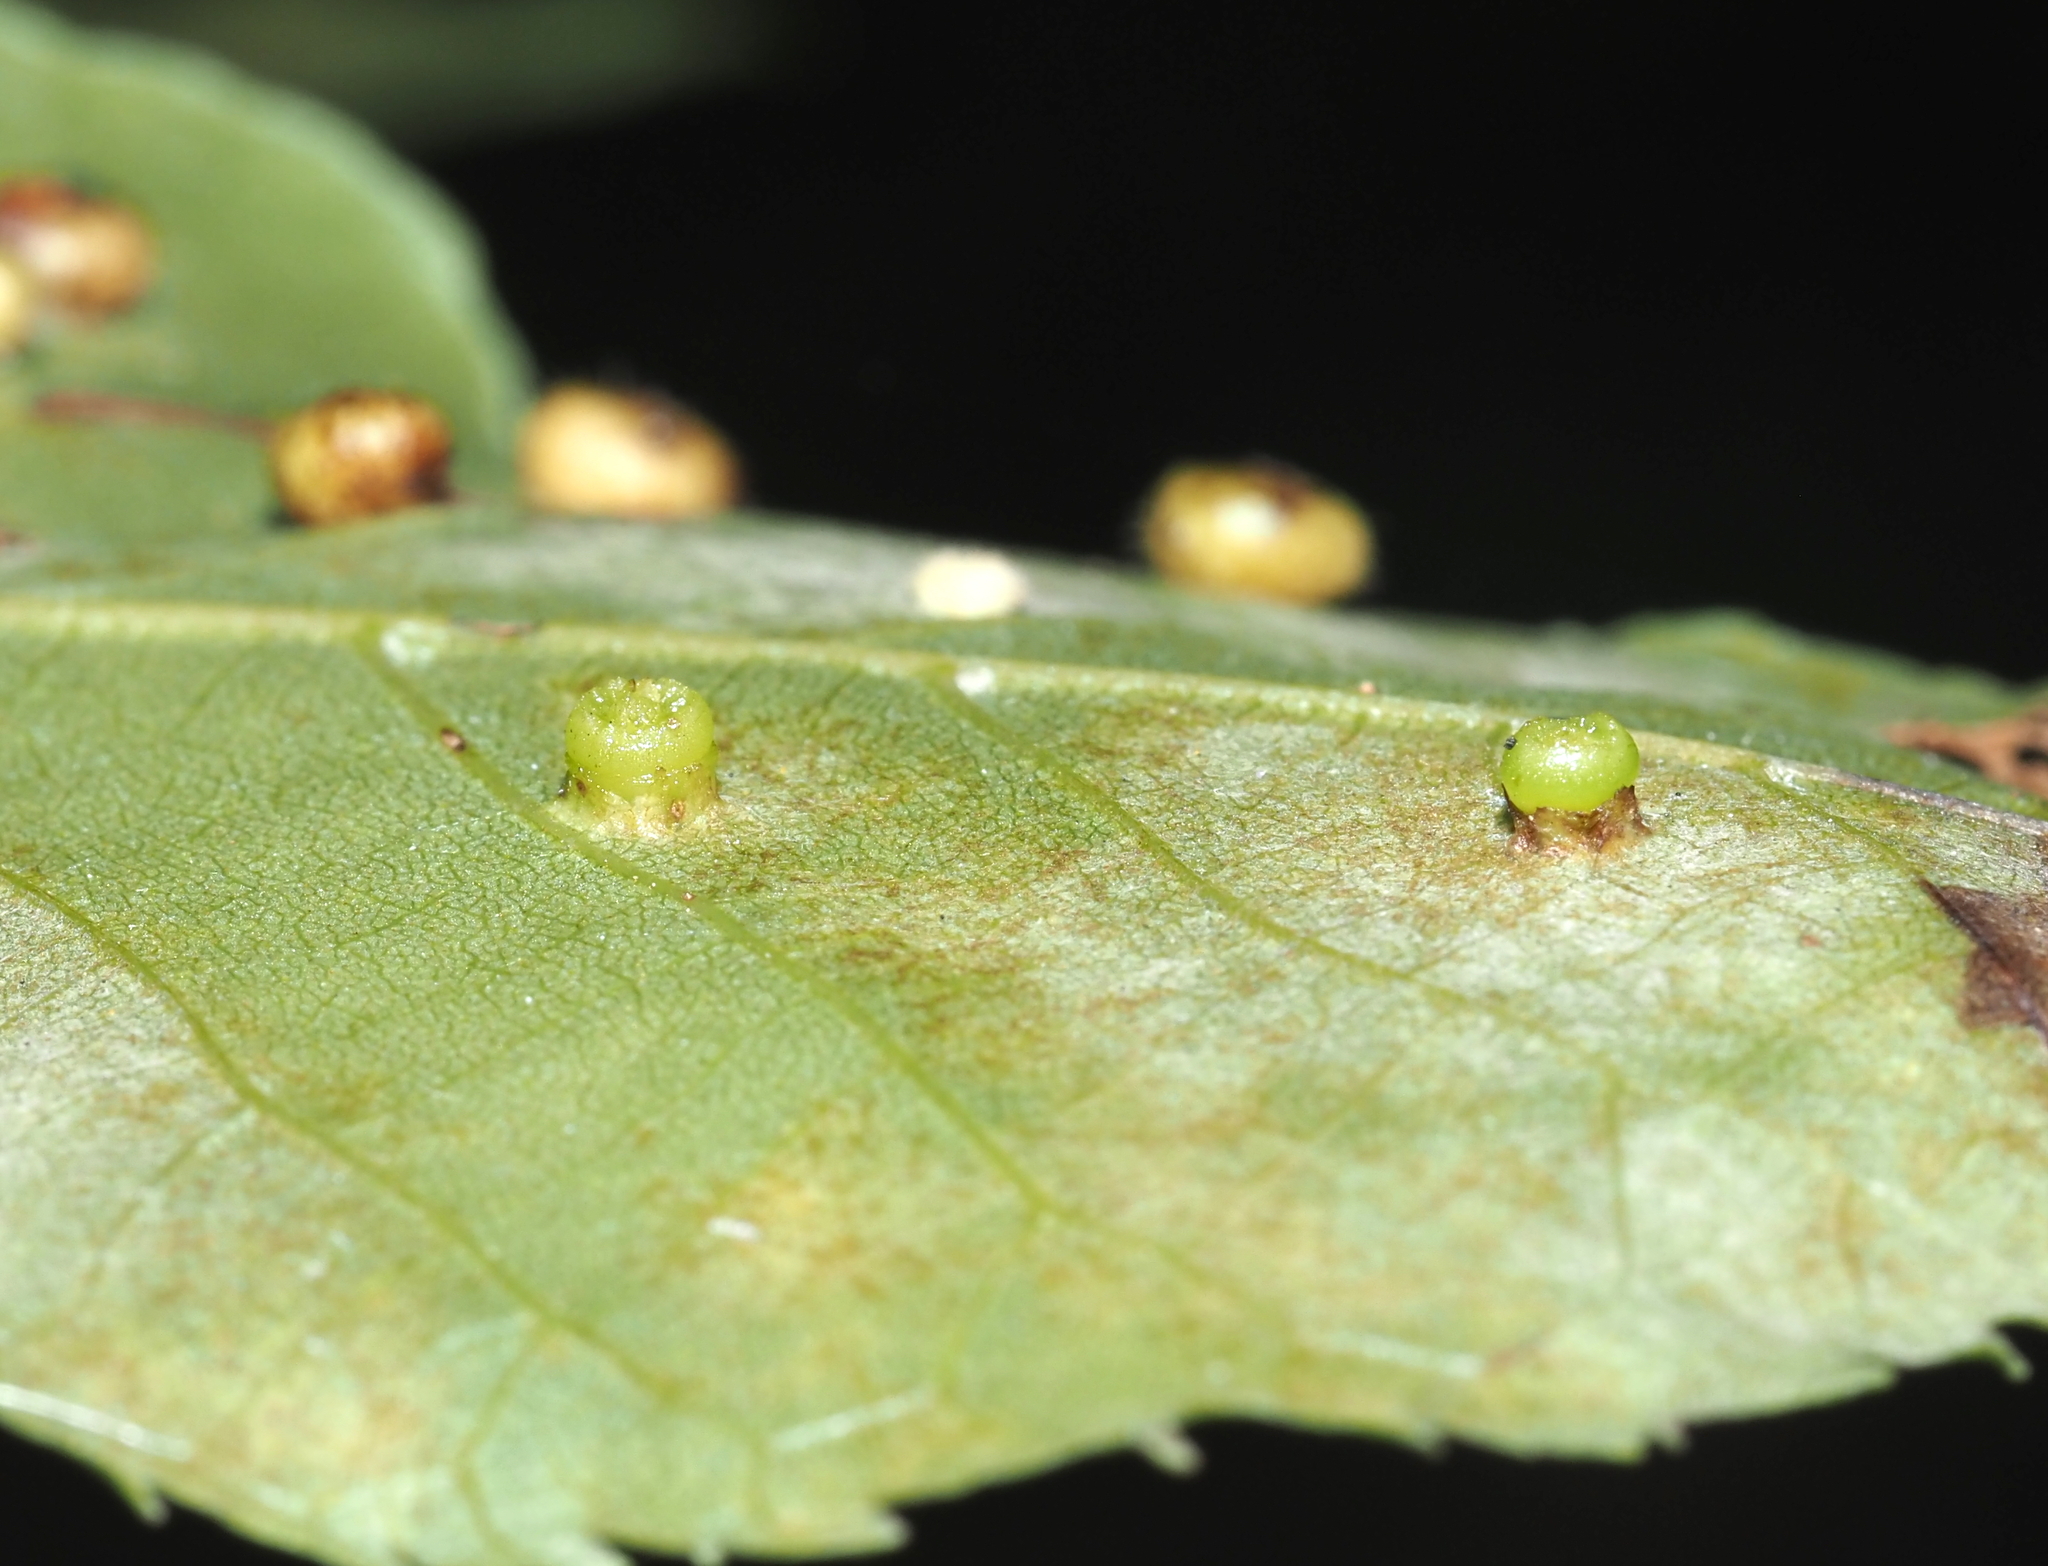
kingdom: Animalia
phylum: Arthropoda
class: Insecta
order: Diptera
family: Cecidomyiidae
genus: Caryomyia
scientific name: Caryomyia melicrustum
